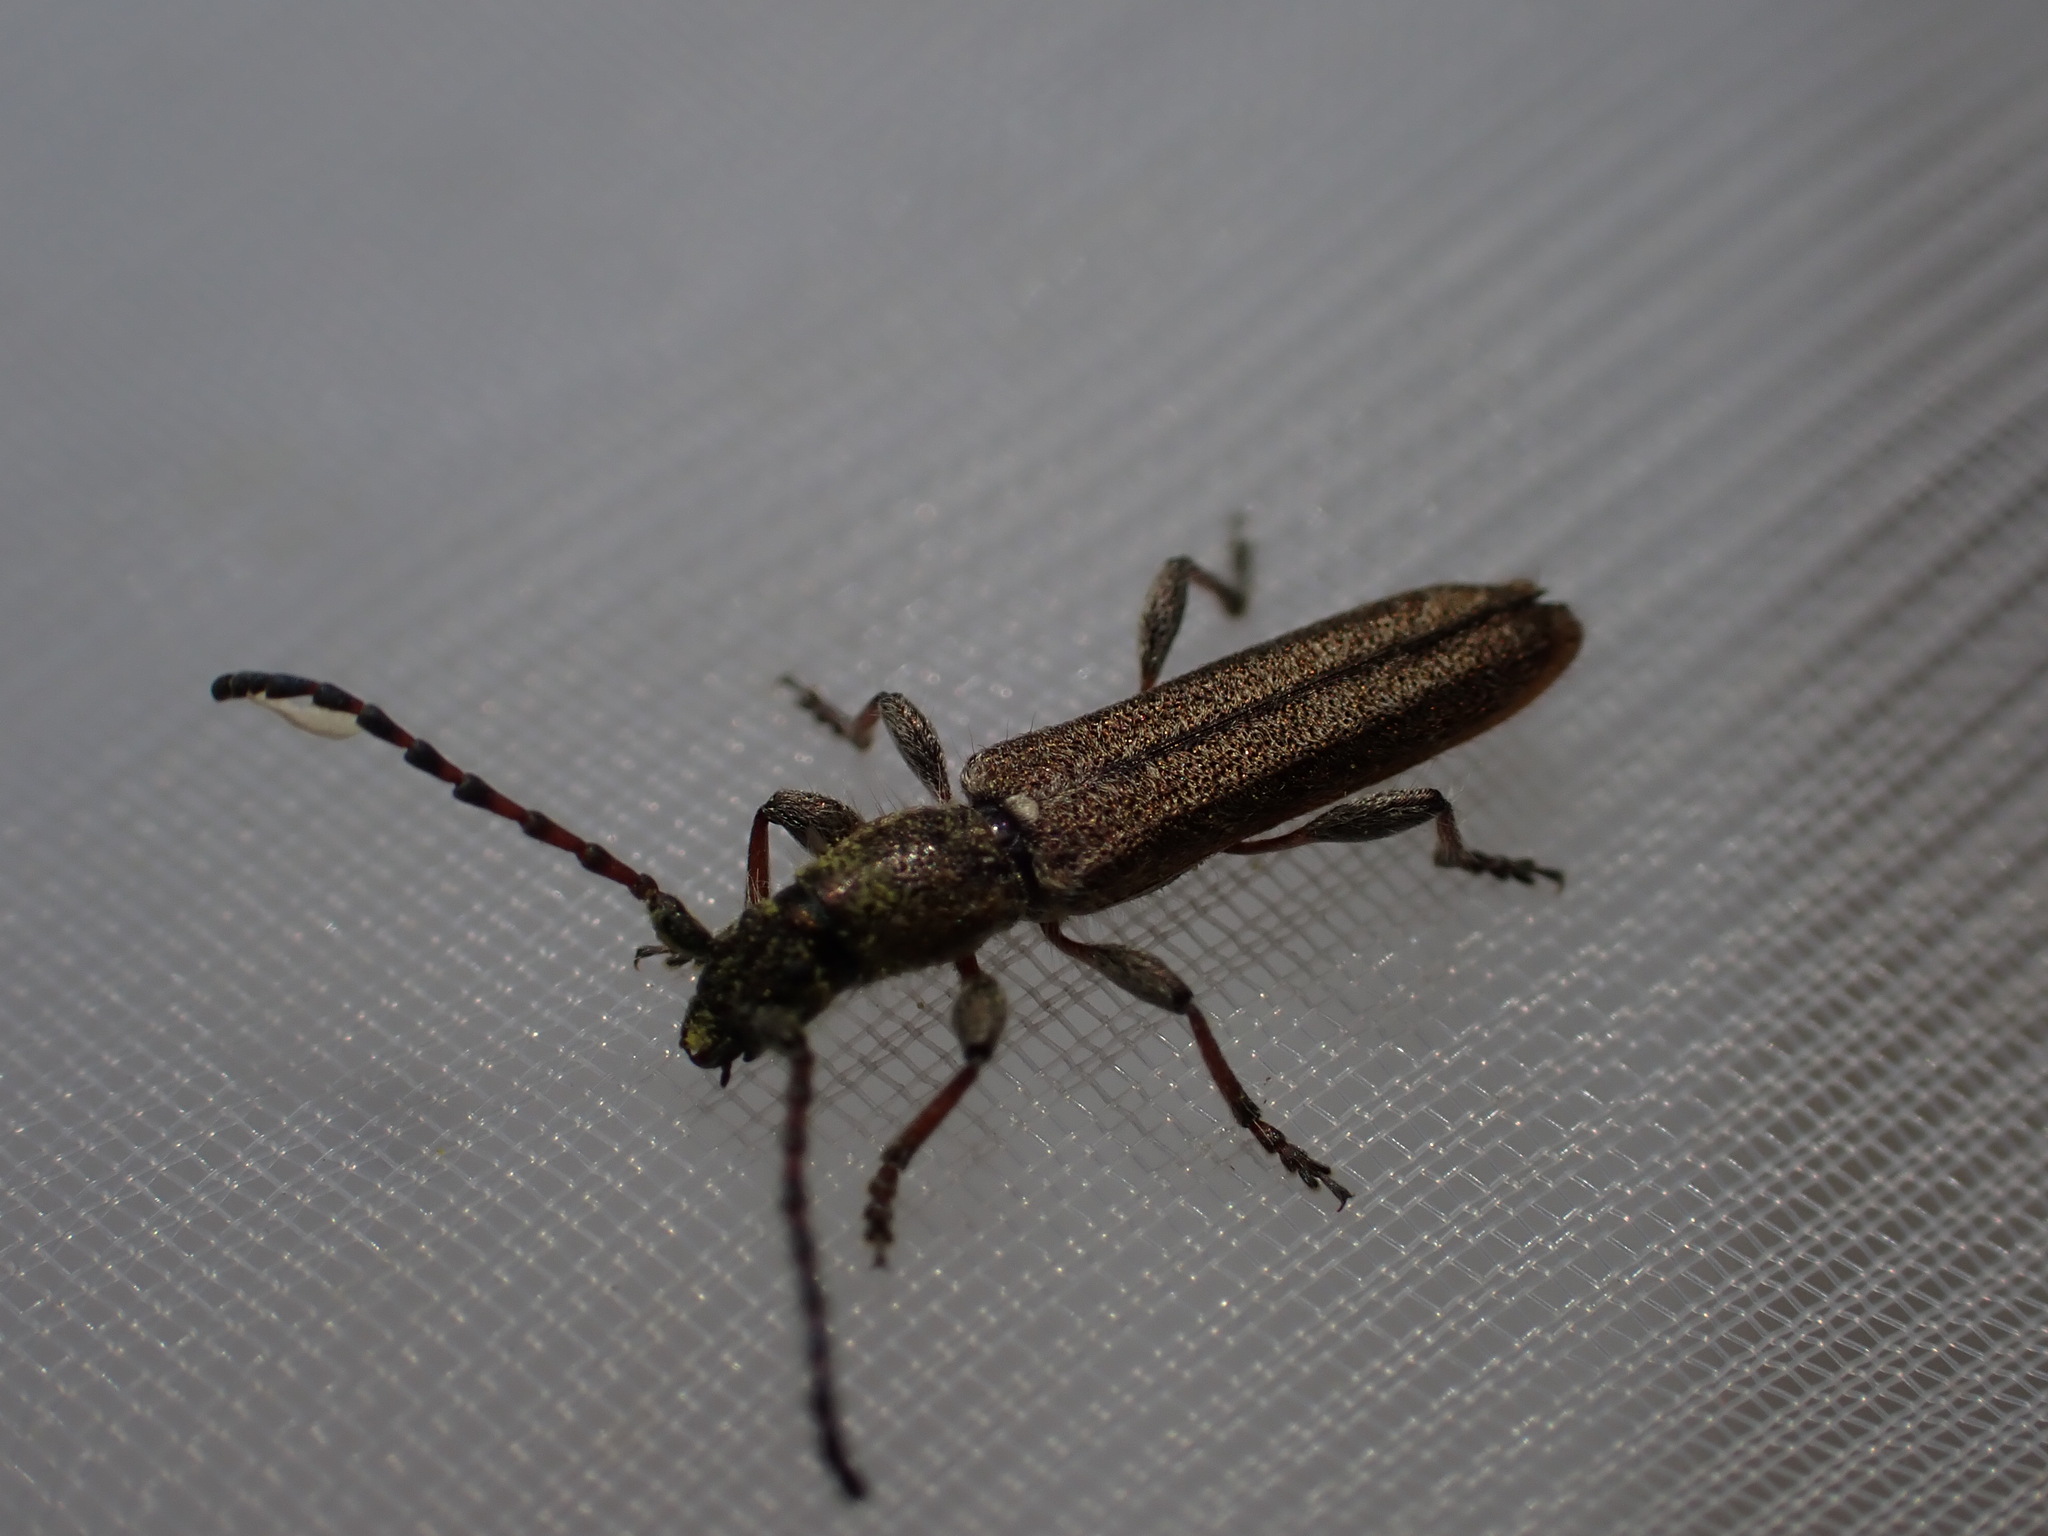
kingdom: Animalia
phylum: Arthropoda
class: Insecta
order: Coleoptera
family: Cerambycidae
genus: Deilus
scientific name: Deilus fugax
